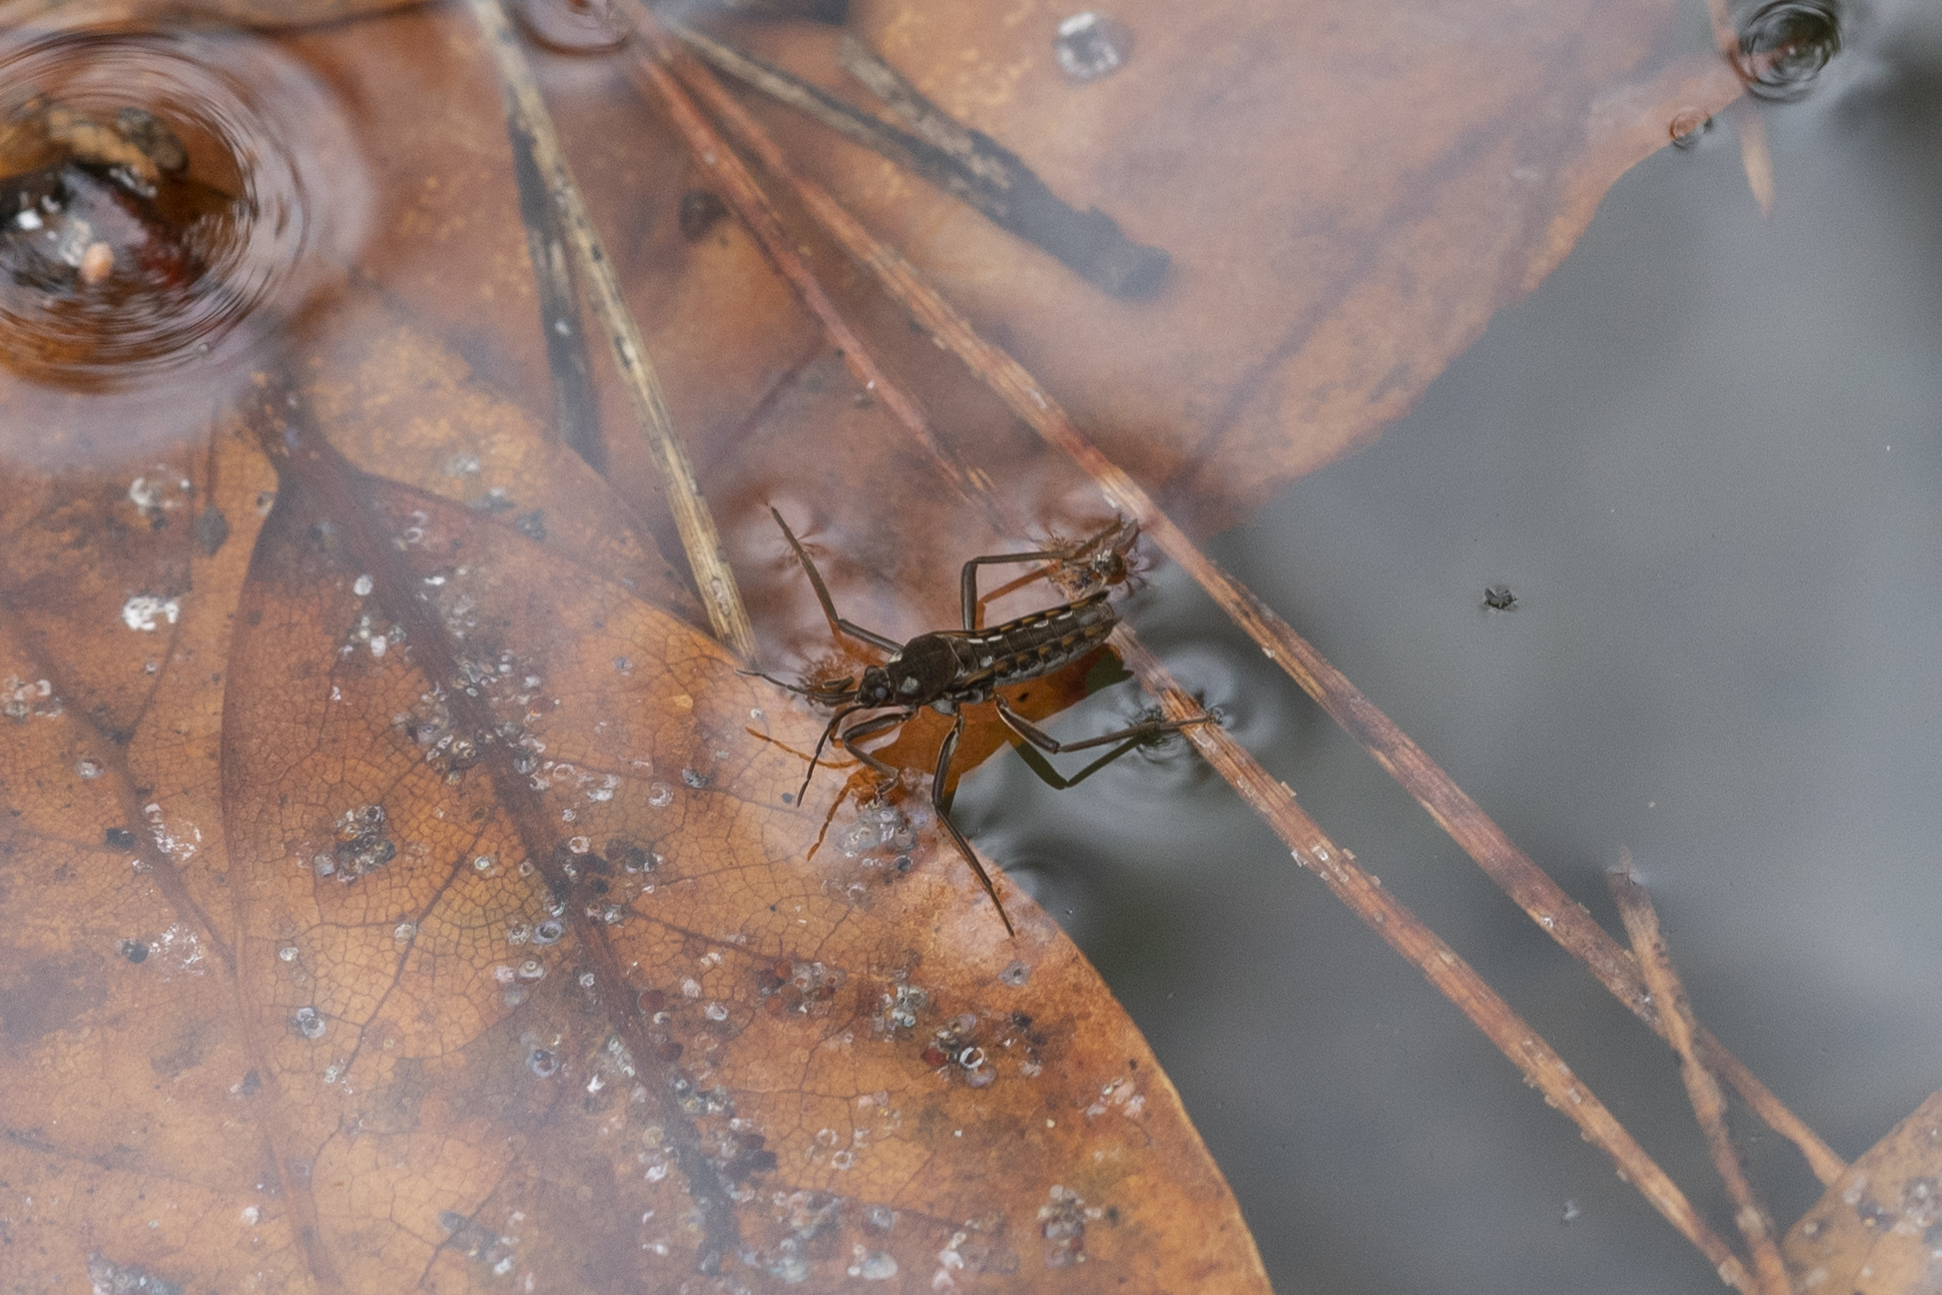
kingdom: Animalia
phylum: Arthropoda
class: Insecta
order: Hemiptera
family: Veliidae
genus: Velia
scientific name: Velia mariae
